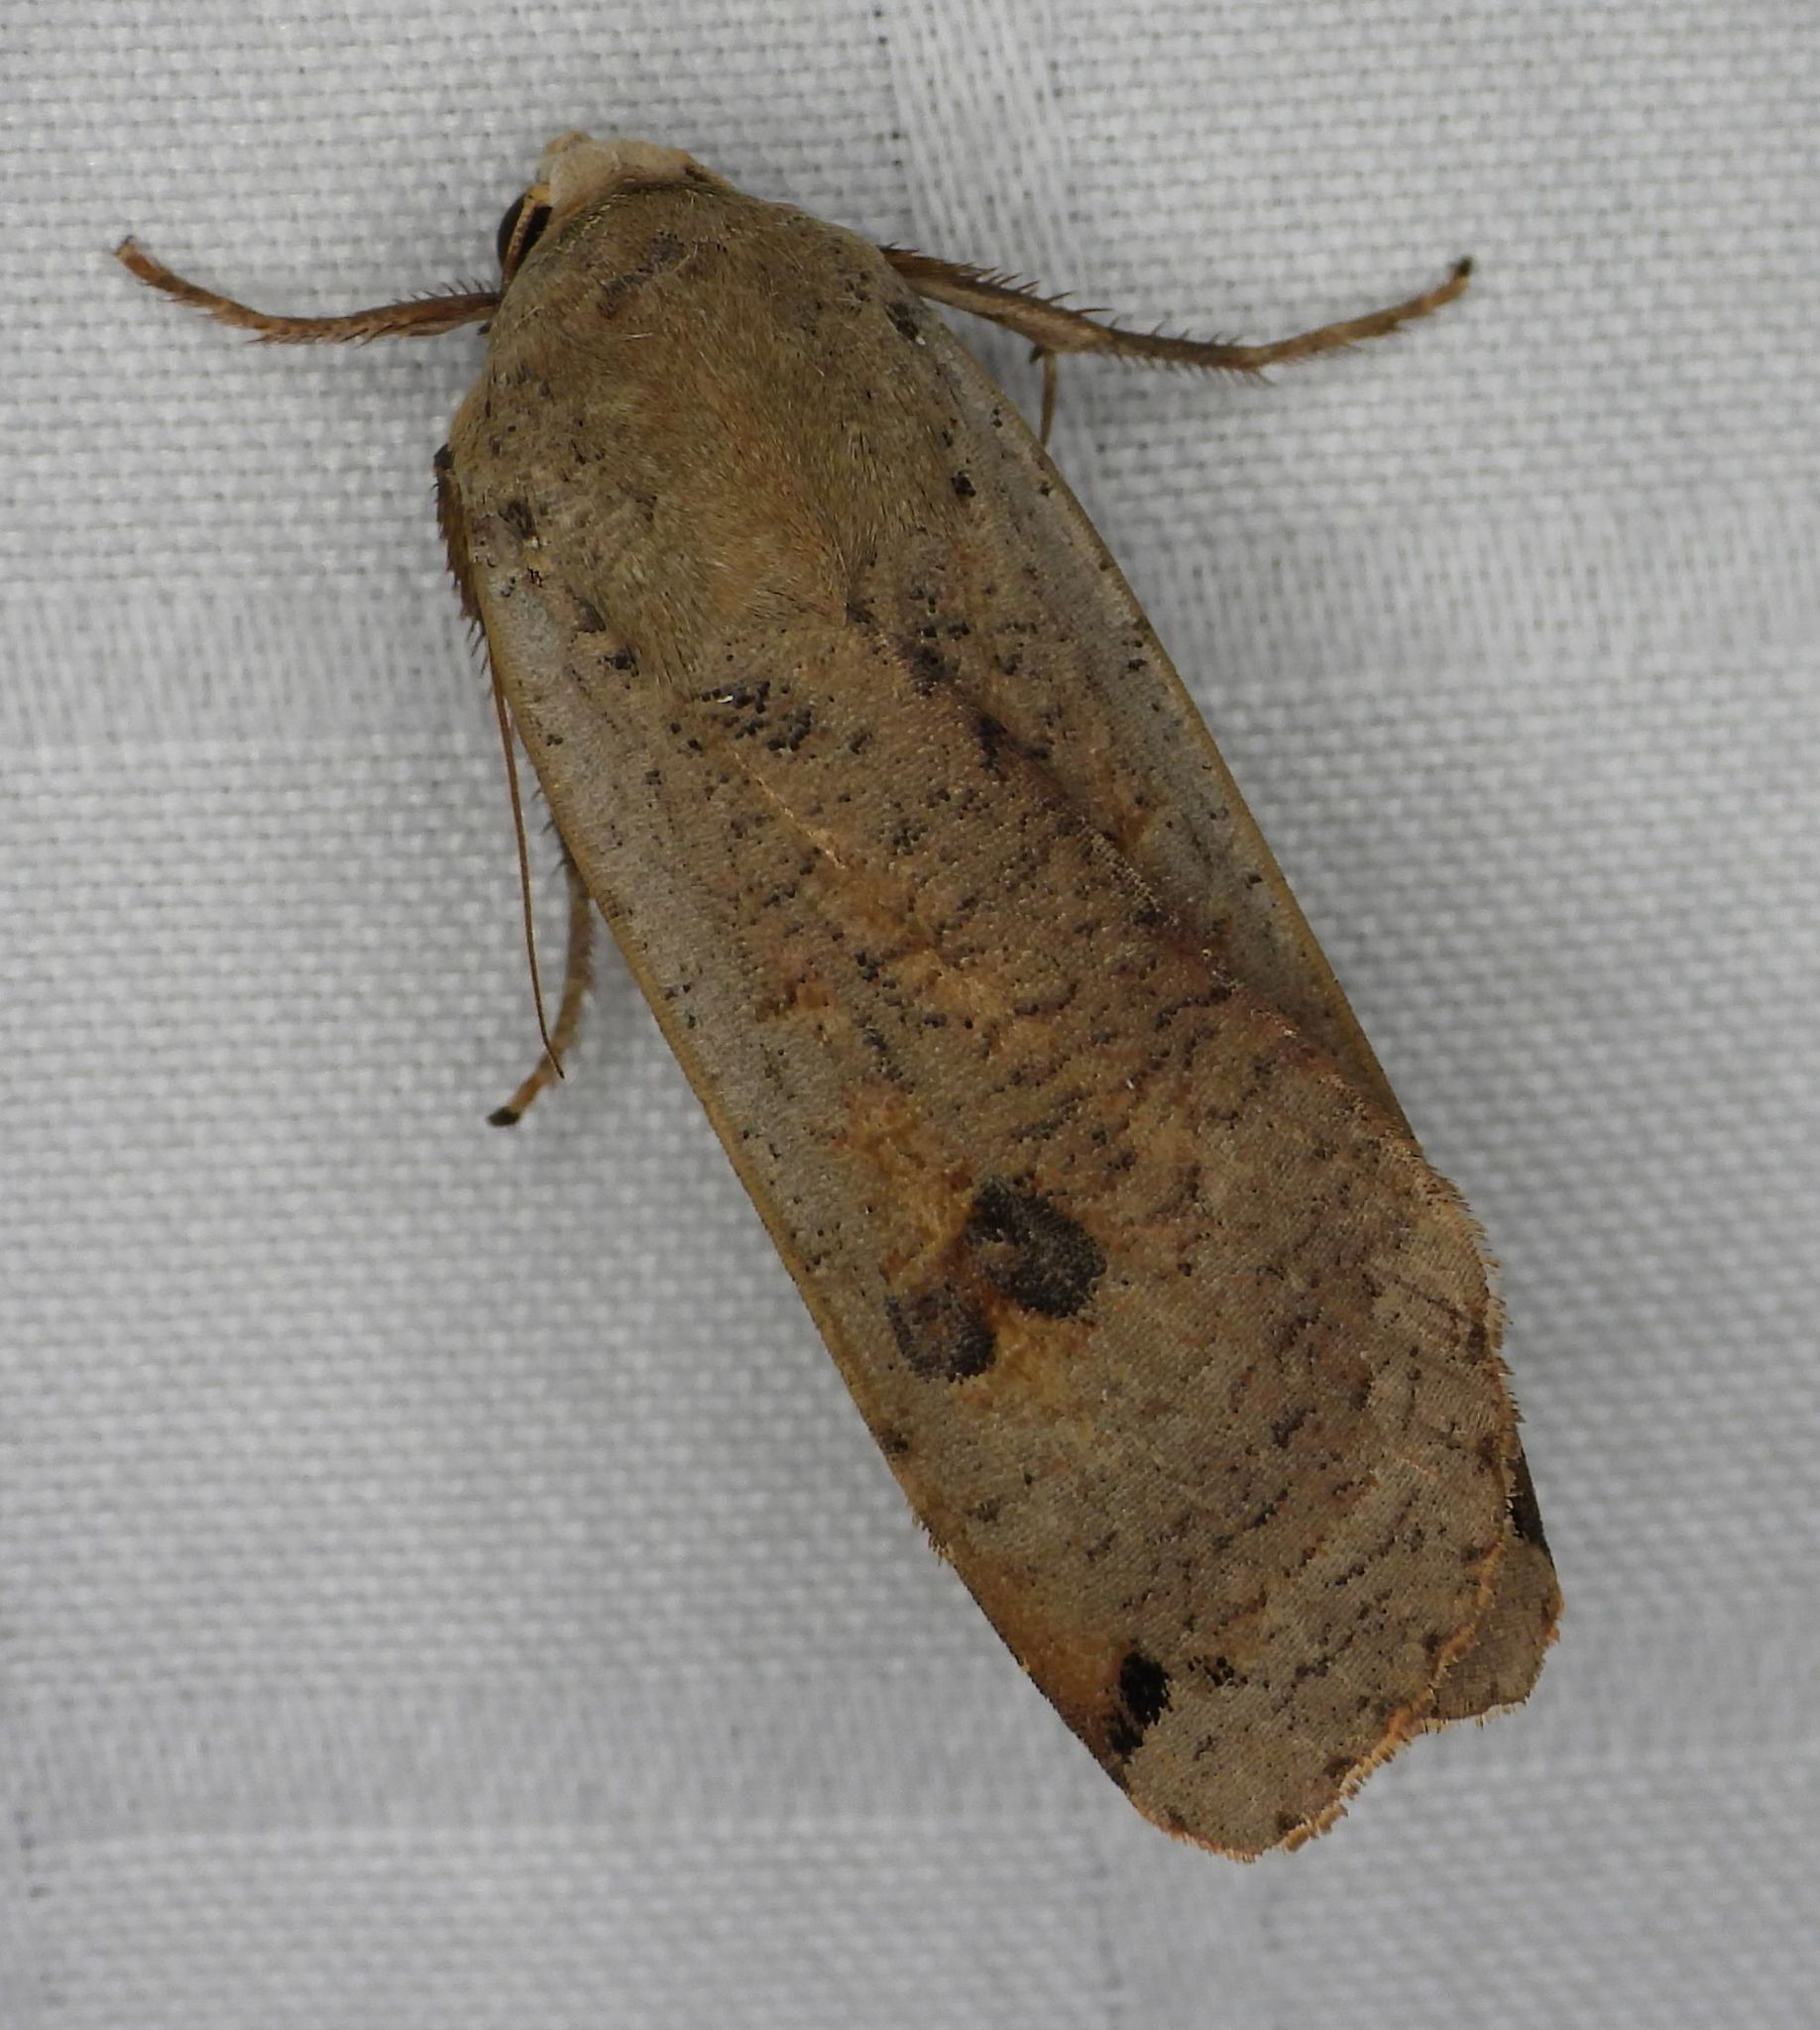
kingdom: Animalia
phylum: Arthropoda
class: Insecta
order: Lepidoptera
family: Noctuidae
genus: Noctua
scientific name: Noctua pronuba
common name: Large yellow underwing
